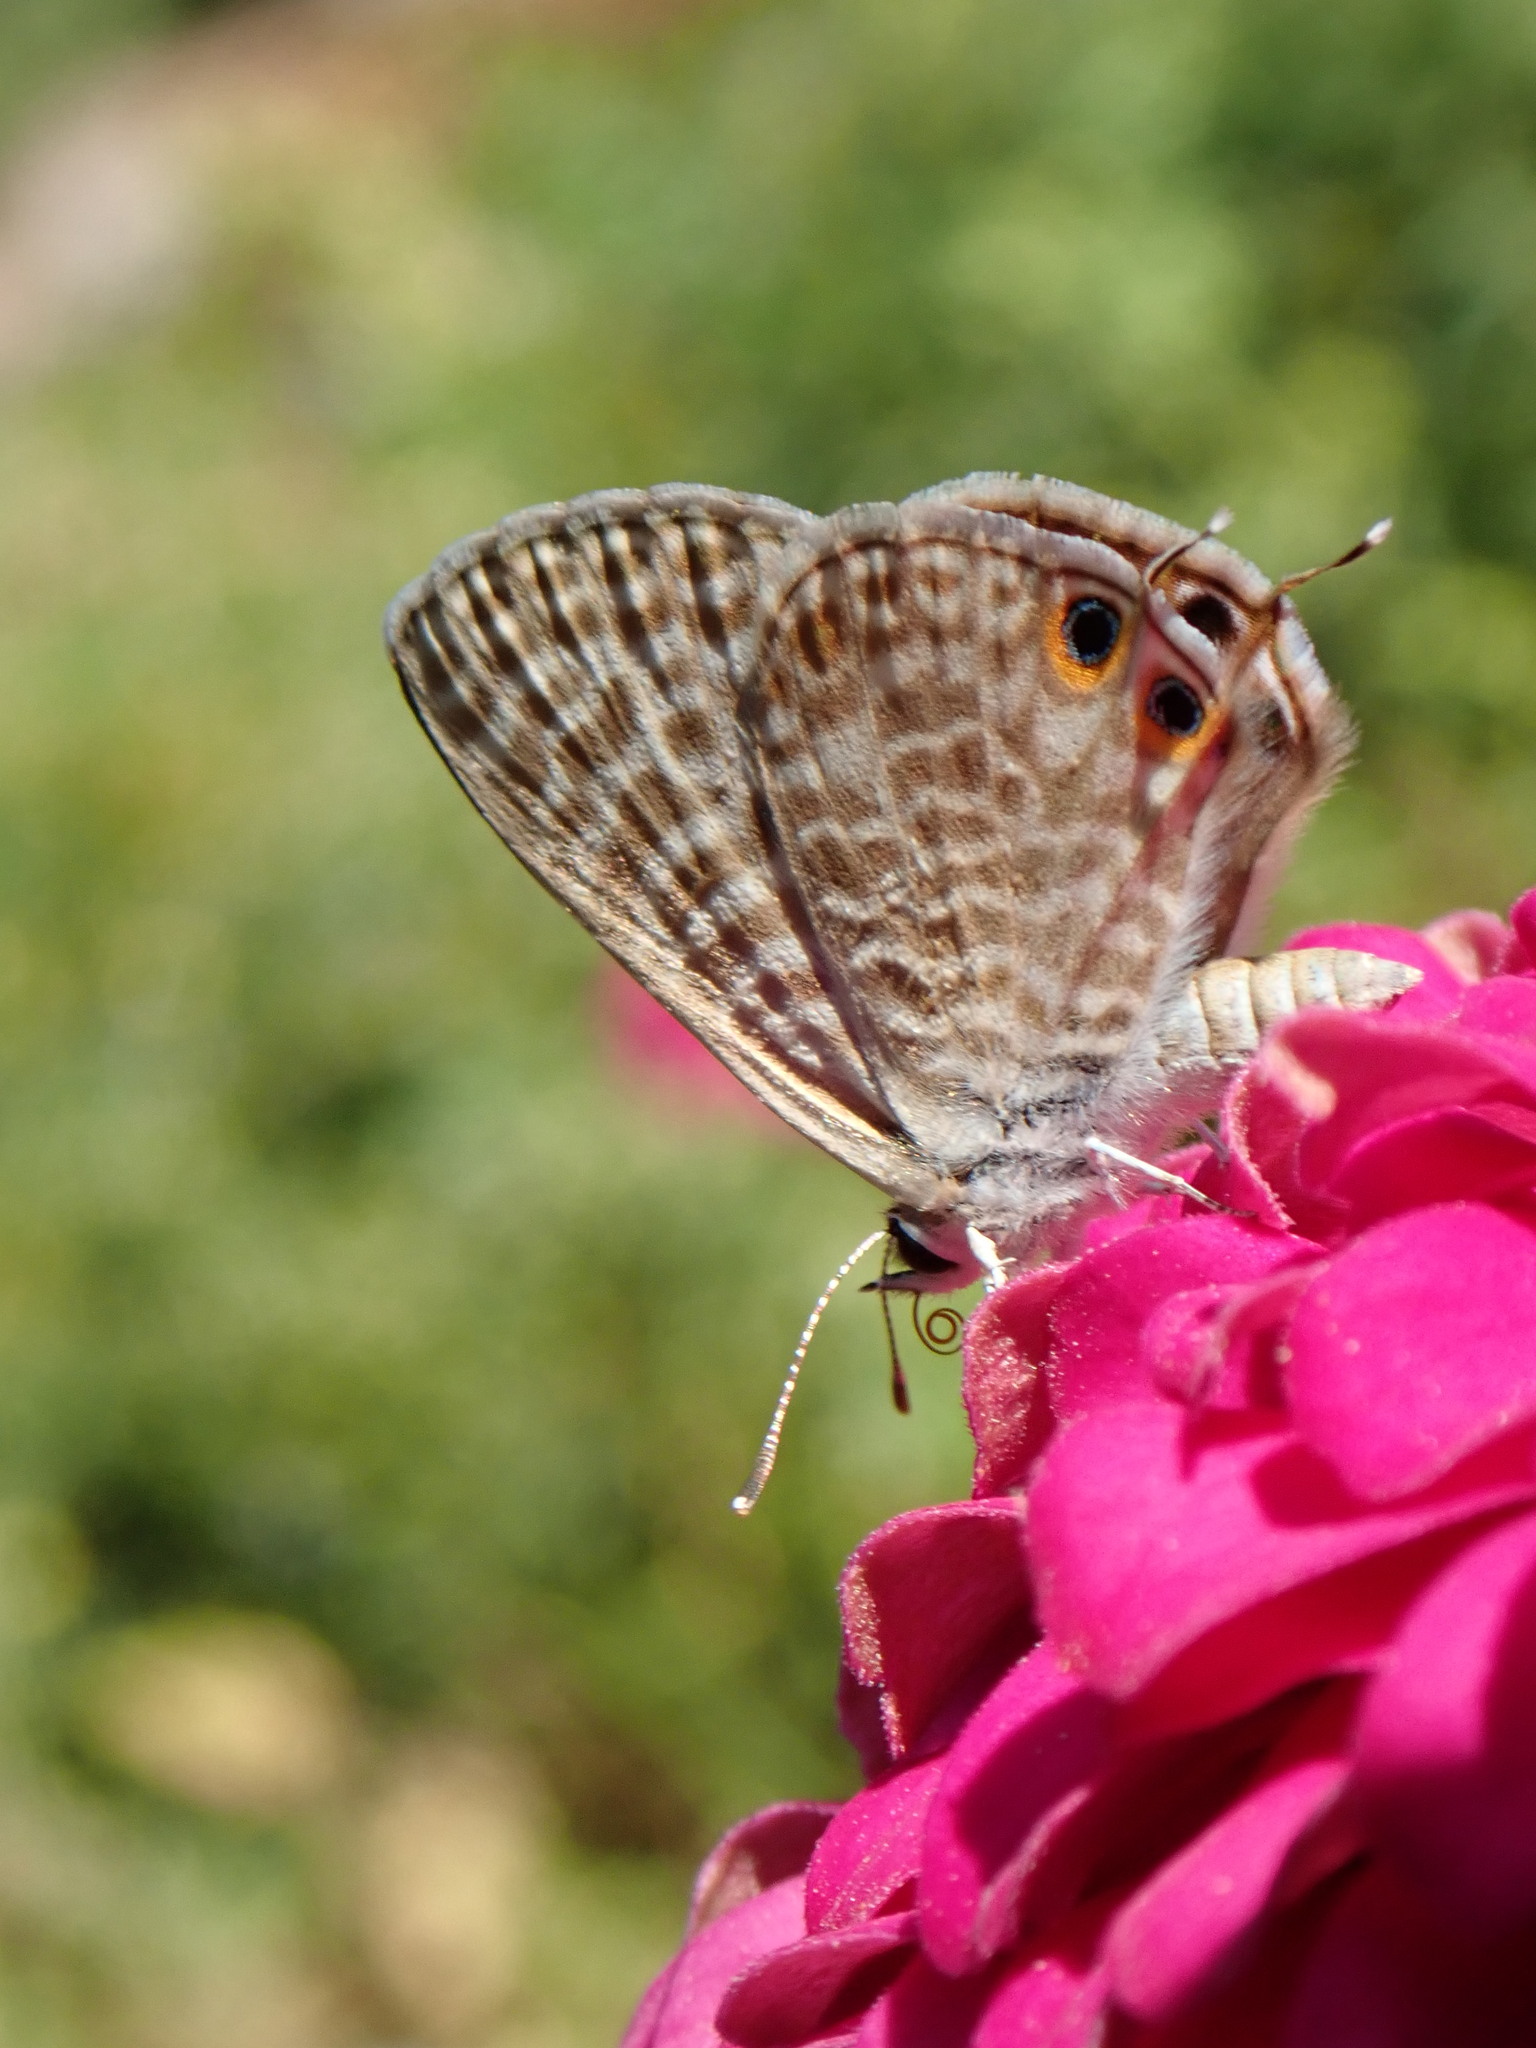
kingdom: Animalia
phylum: Arthropoda
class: Insecta
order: Lepidoptera
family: Lycaenidae
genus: Leptotes
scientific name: Leptotes pirithous
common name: Lang's short-tailed blue
